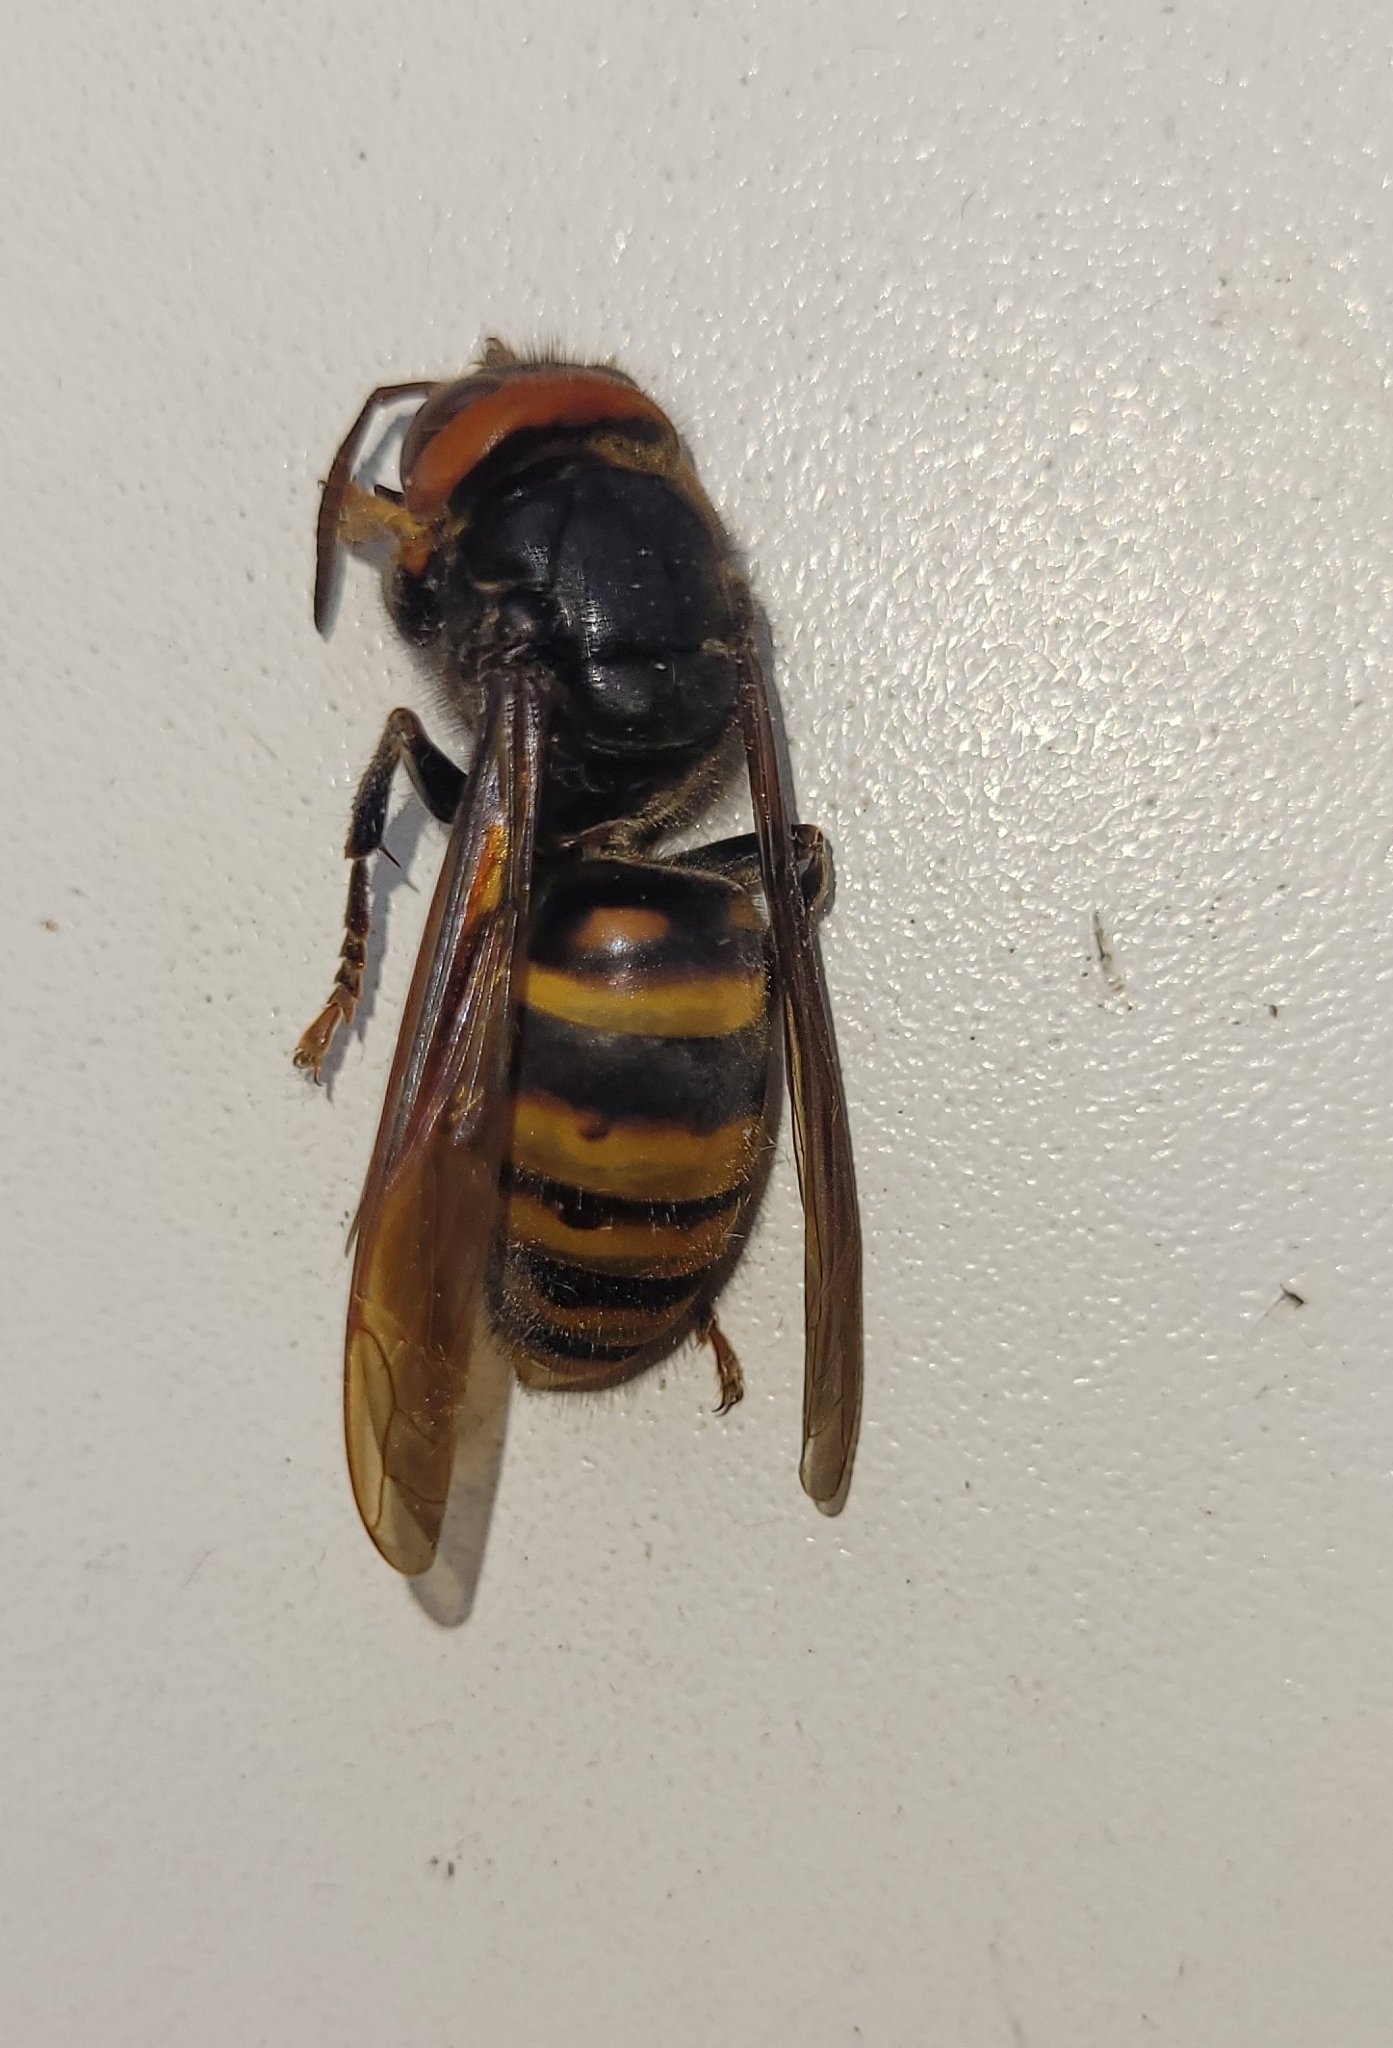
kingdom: Animalia
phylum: Arthropoda
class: Insecta
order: Hymenoptera
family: Vespidae
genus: Vespa
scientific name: Vespa analis
